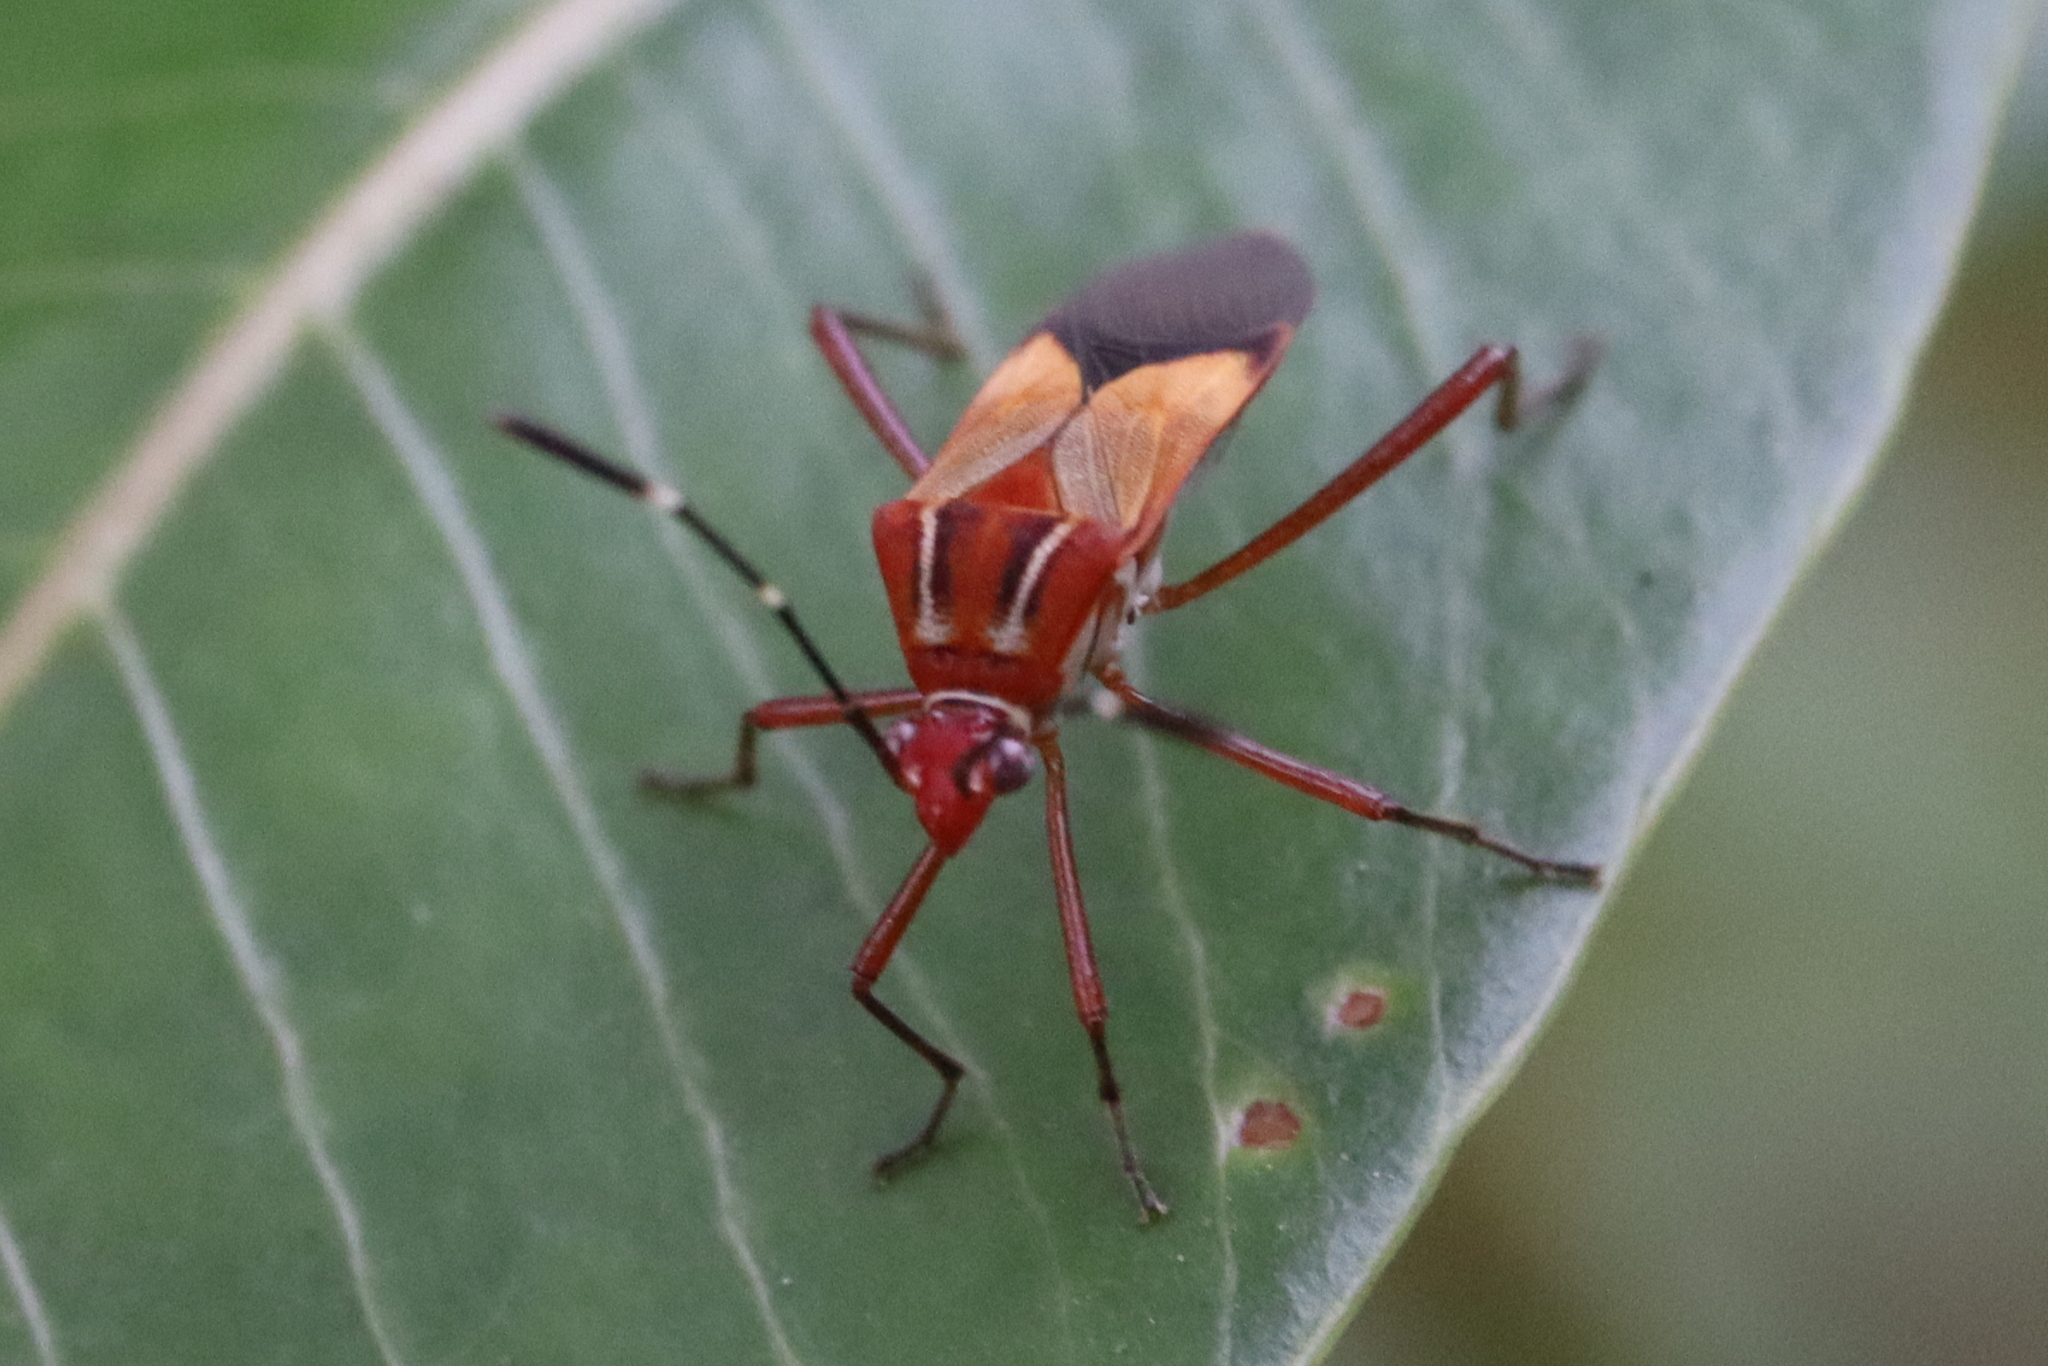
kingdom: Animalia
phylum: Arthropoda
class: Insecta
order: Hemiptera
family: Coreidae
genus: Hypselonotus
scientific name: Hypselonotus interruptus
